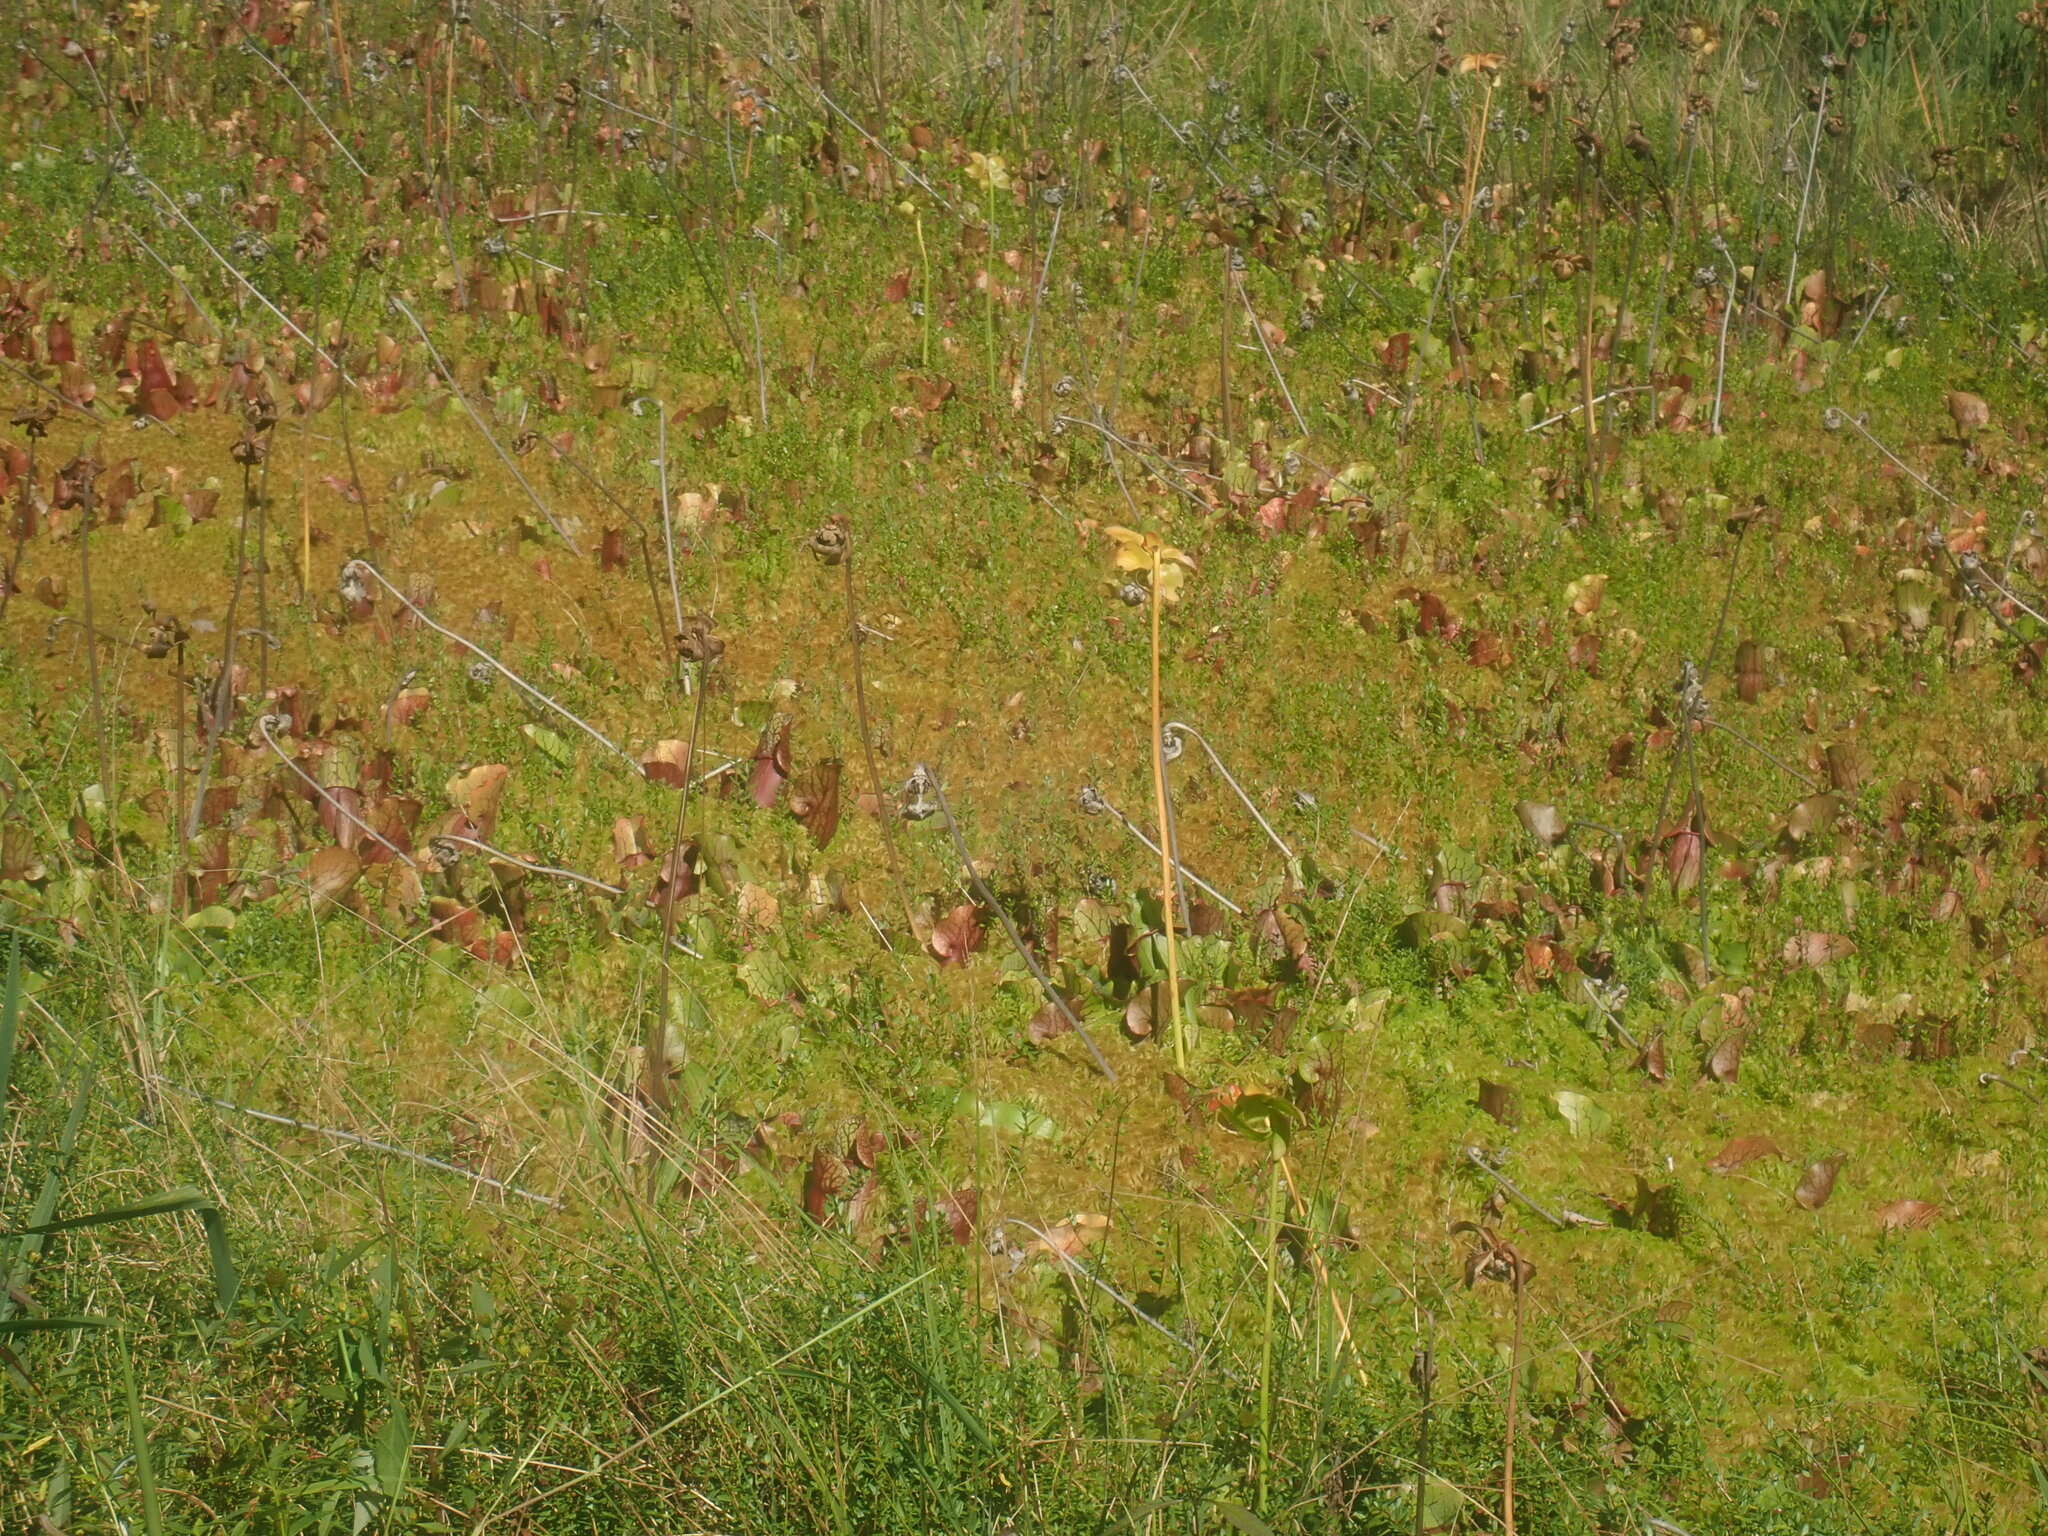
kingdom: Plantae
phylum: Tracheophyta
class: Magnoliopsida
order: Ericales
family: Sarraceniaceae
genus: Sarracenia
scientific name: Sarracenia purpurea
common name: Pitcherplant
